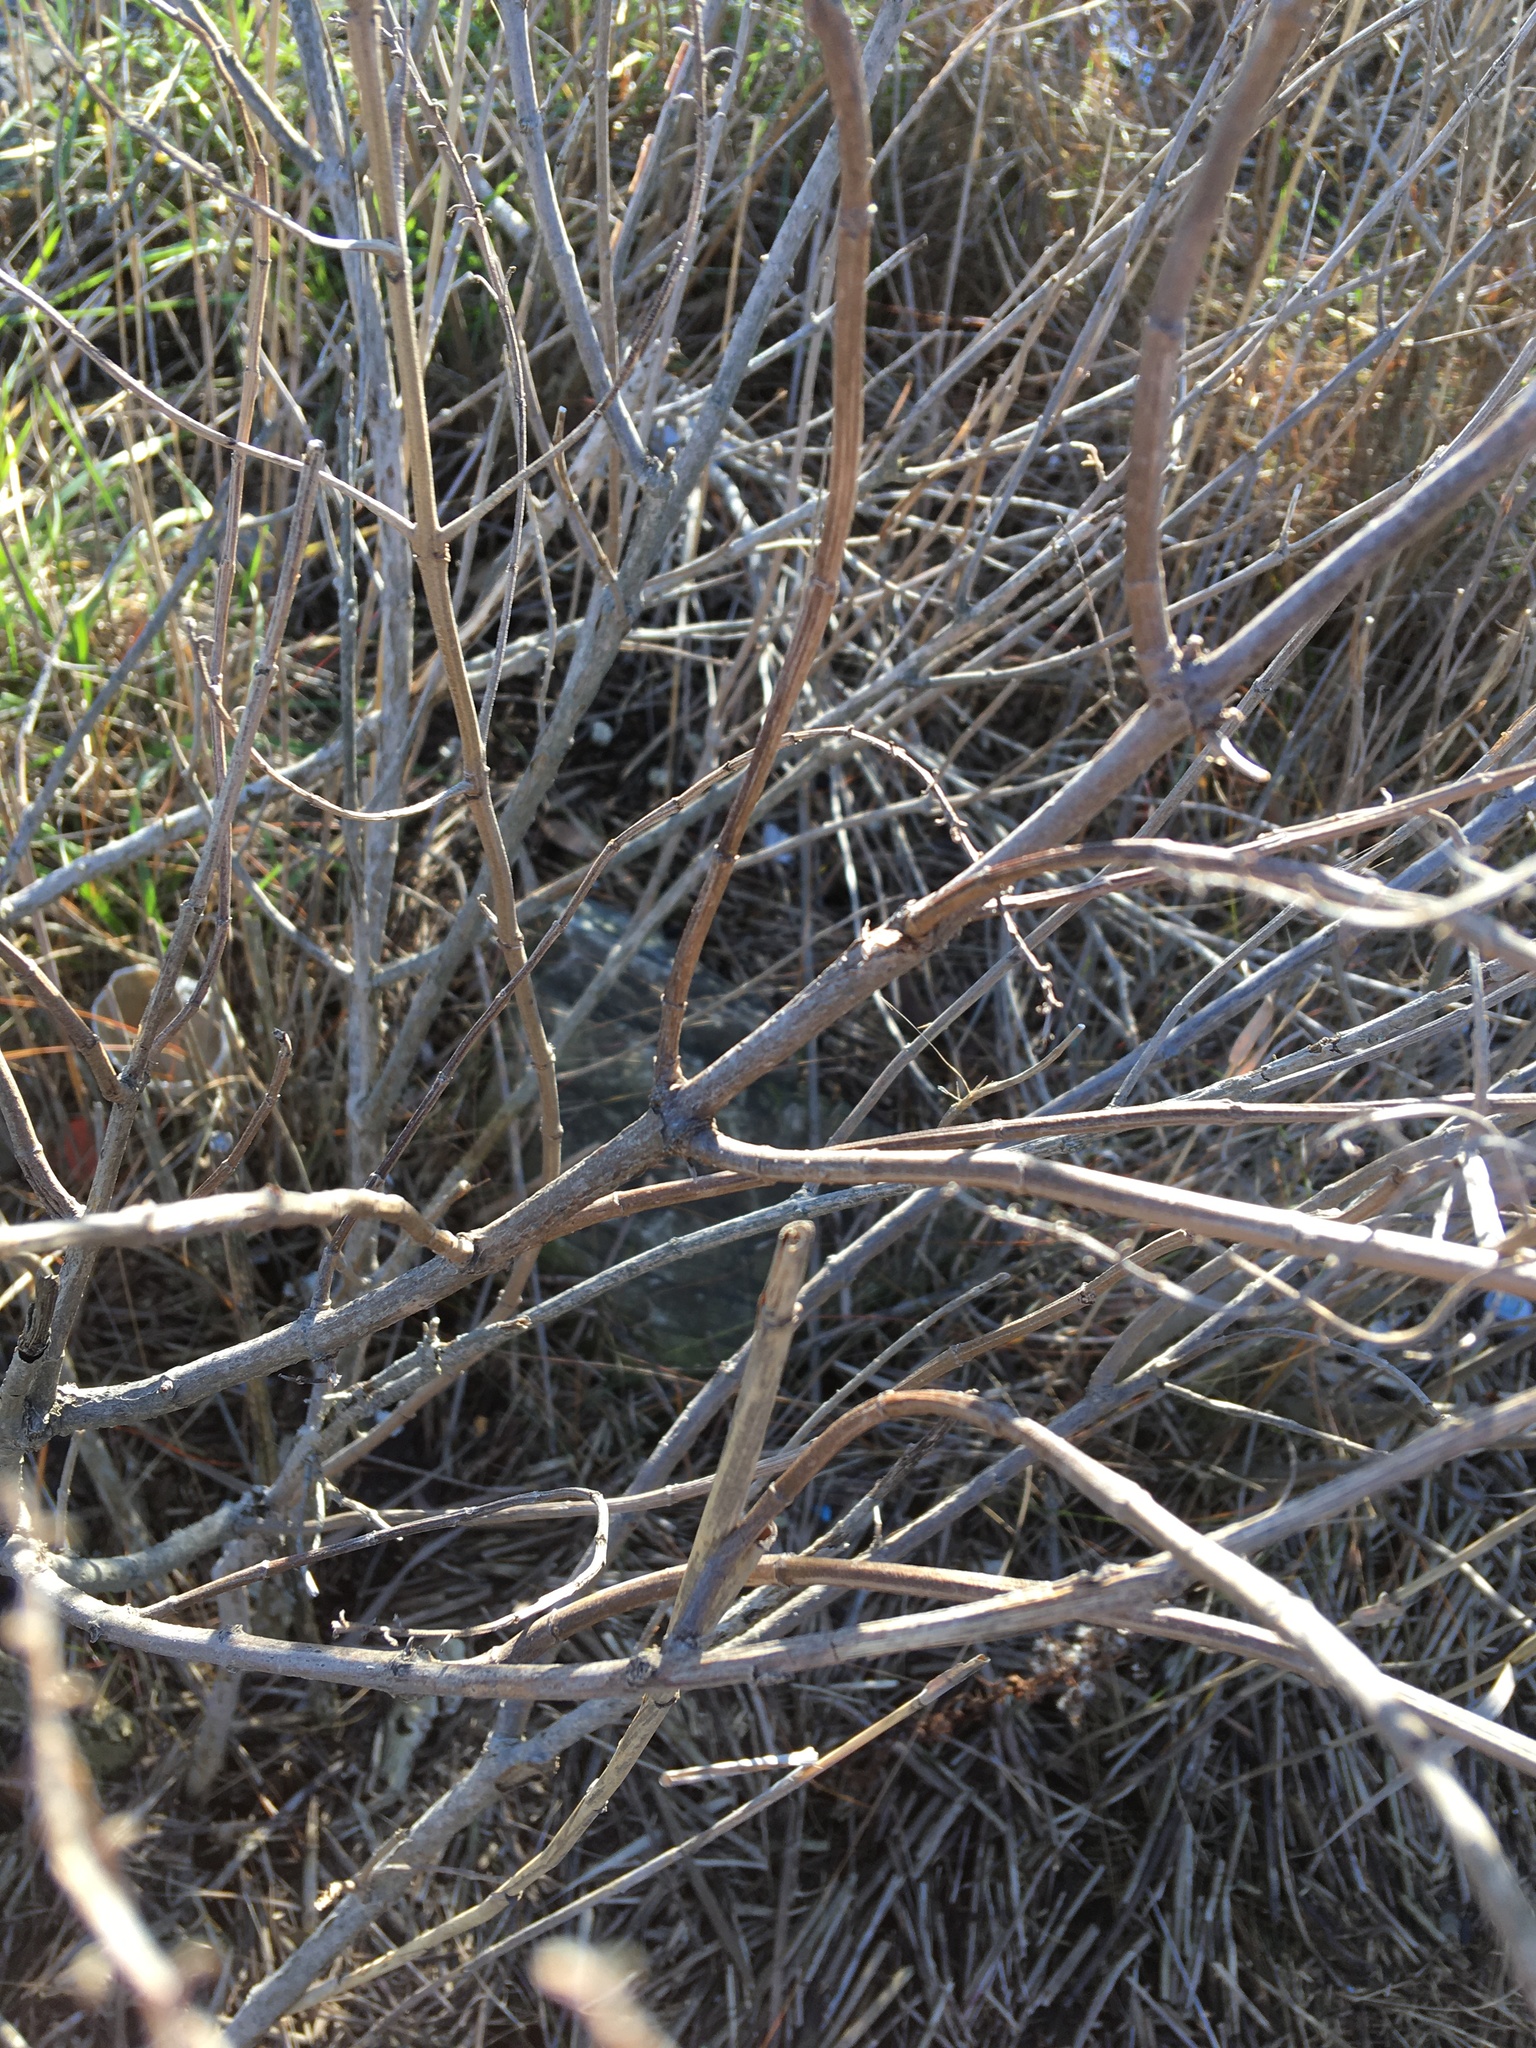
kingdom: Plantae
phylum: Tracheophyta
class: Magnoliopsida
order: Asterales
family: Asteraceae
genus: Iva
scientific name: Iva frutescens
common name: Big-leaved marsh-elder
